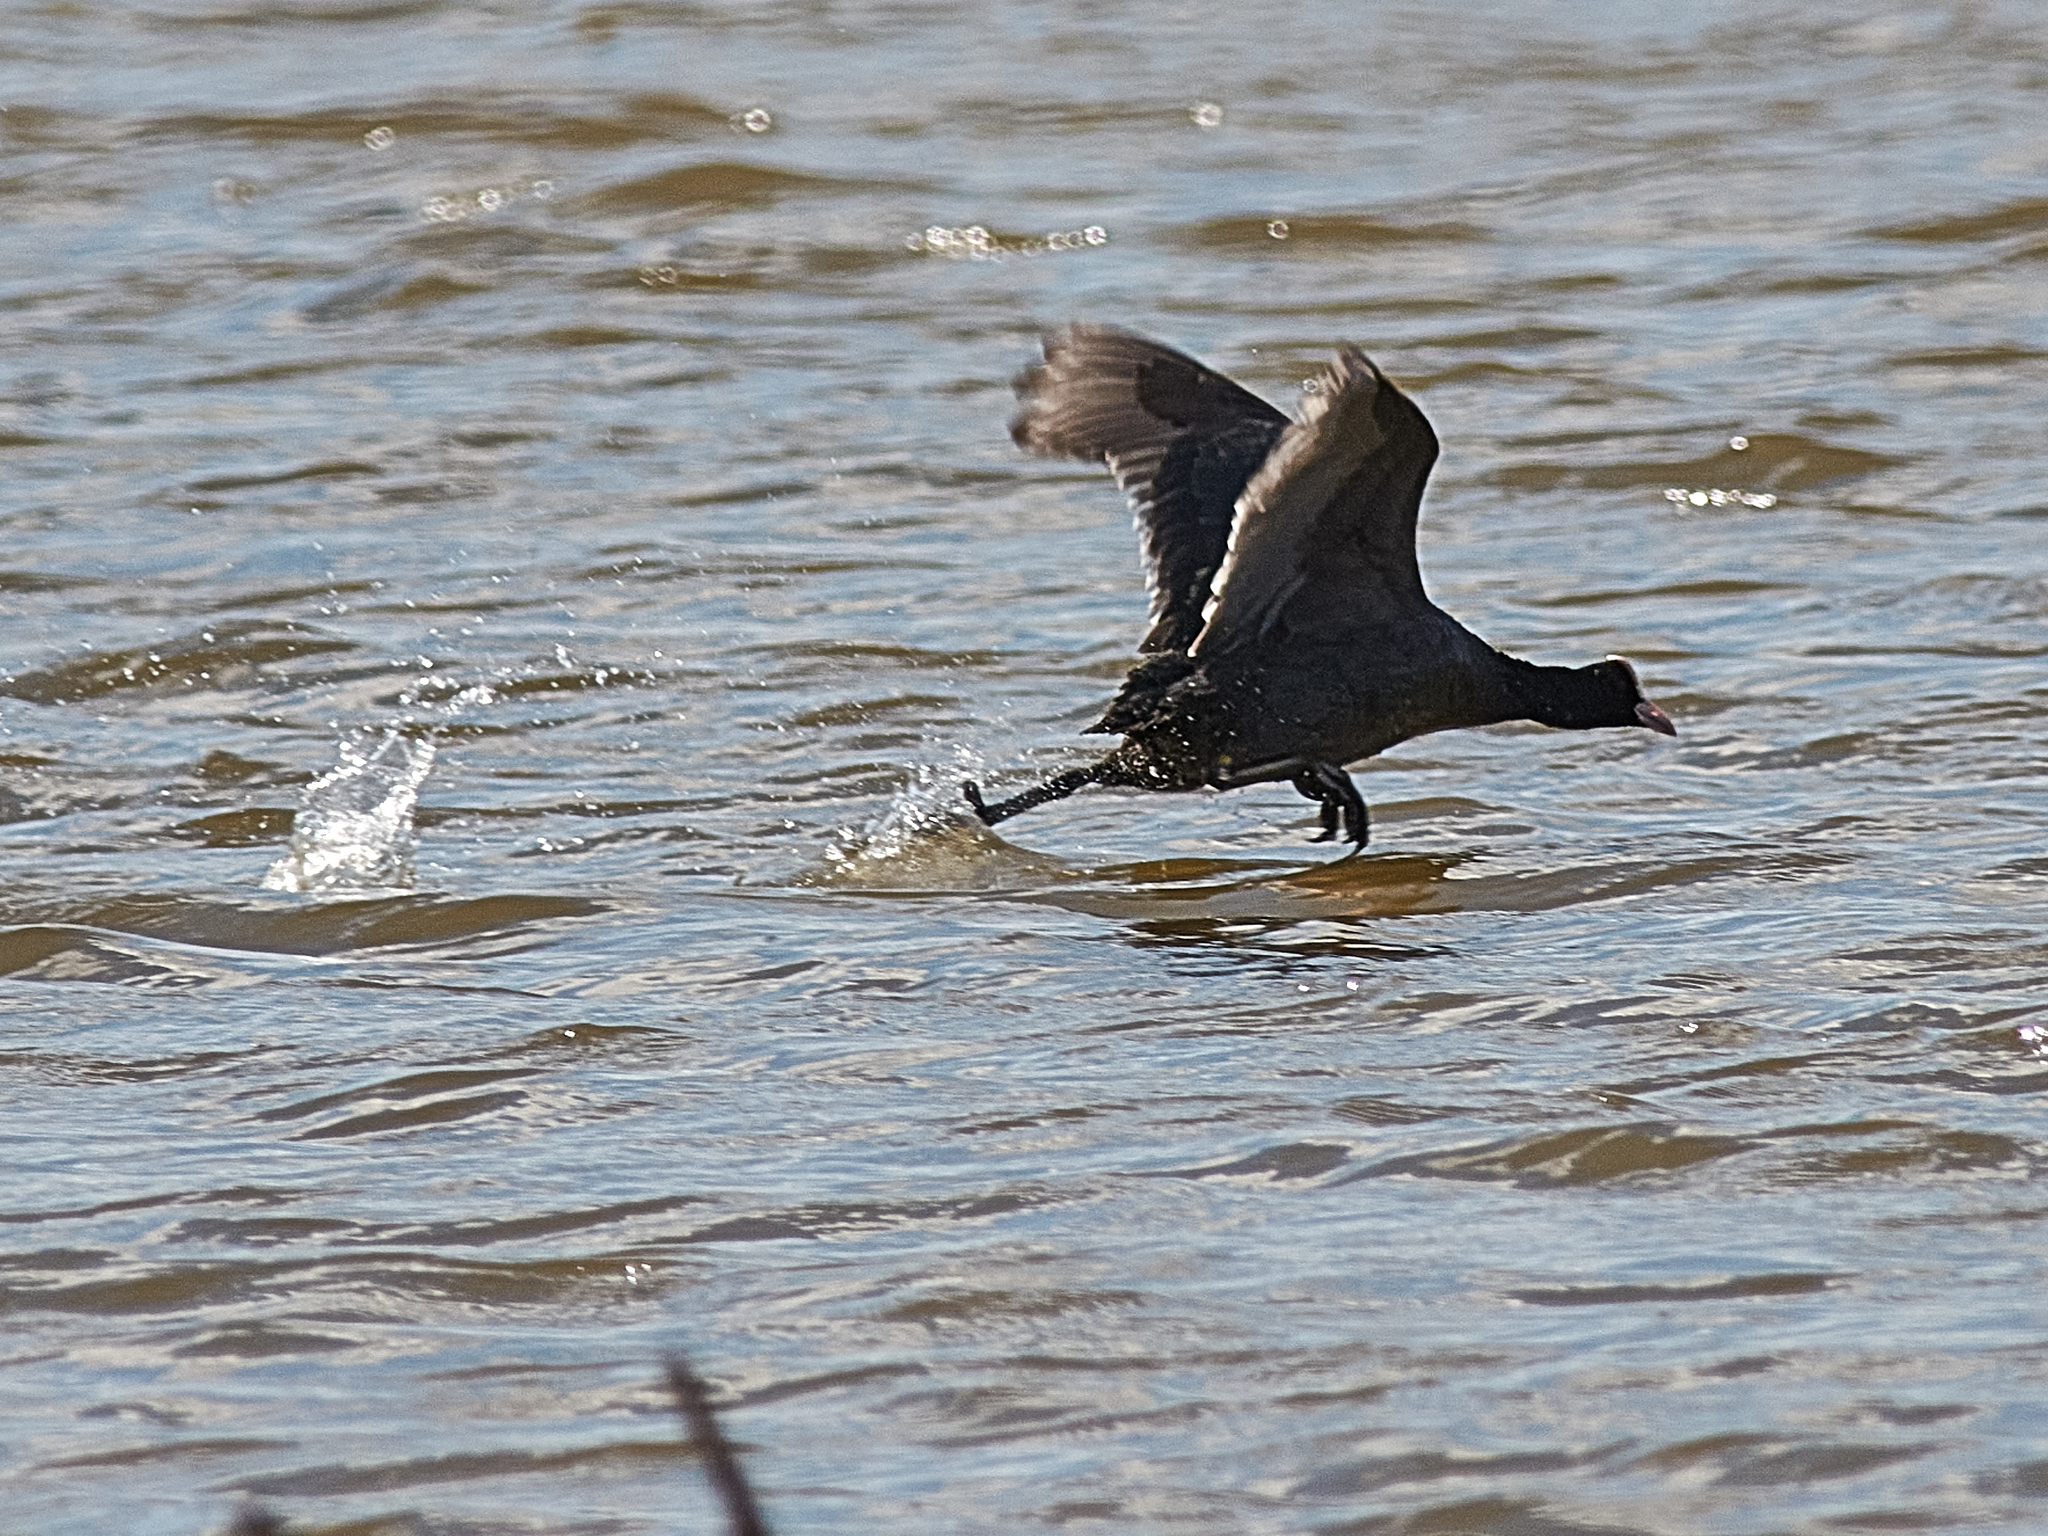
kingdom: Animalia
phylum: Chordata
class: Aves
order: Gruiformes
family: Rallidae
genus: Fulica
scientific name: Fulica atra
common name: Eurasian coot
